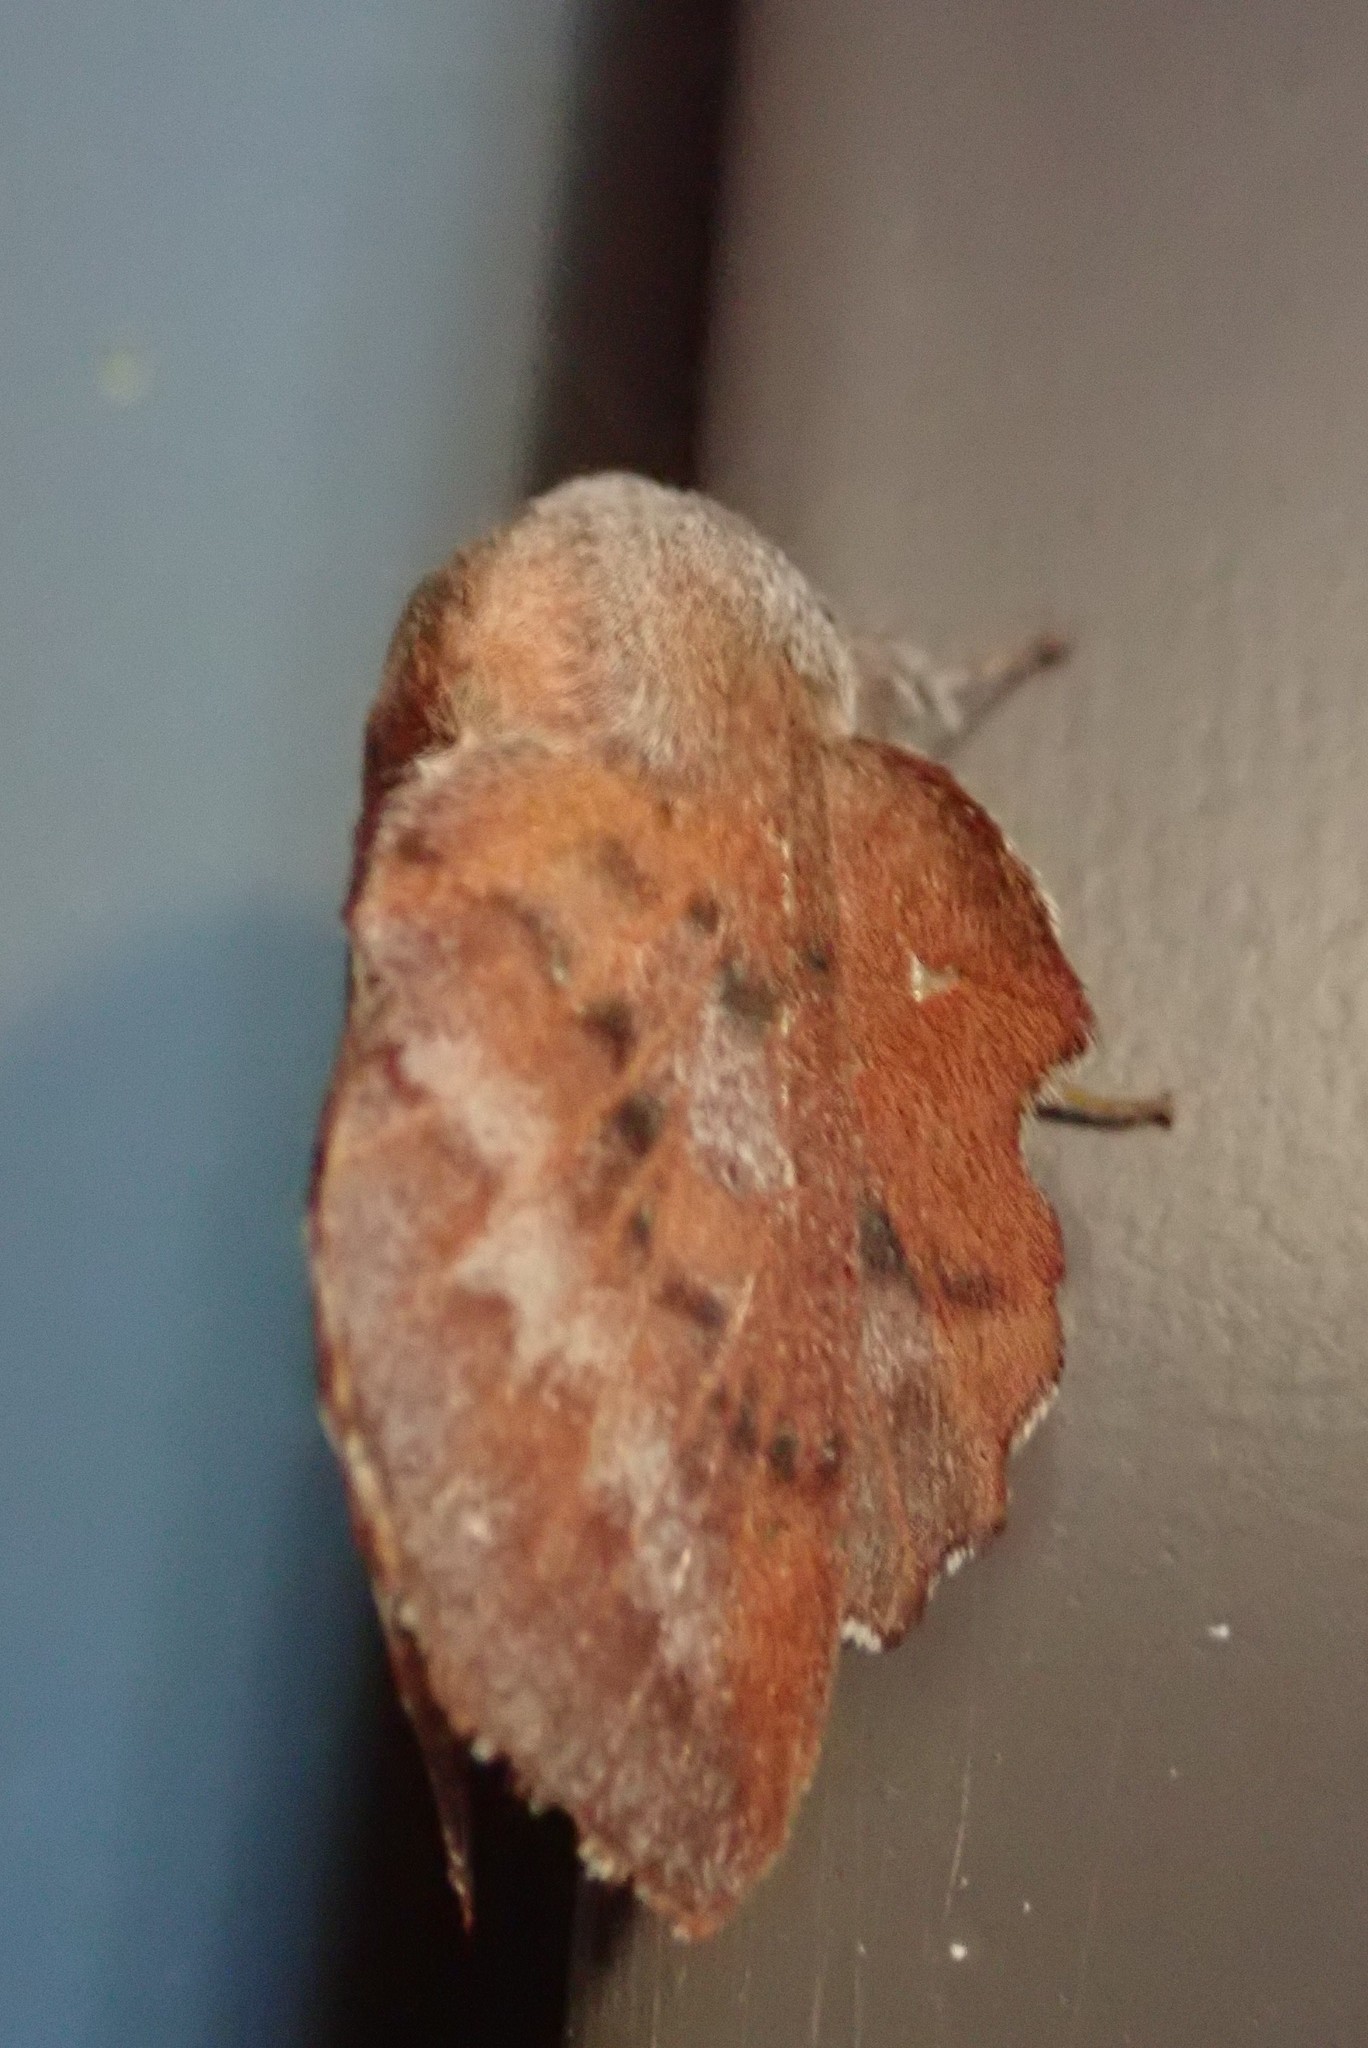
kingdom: Animalia
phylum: Arthropoda
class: Insecta
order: Lepidoptera
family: Lasiocampidae
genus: Phyllodesma
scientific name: Phyllodesma americana
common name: American lappet moth
